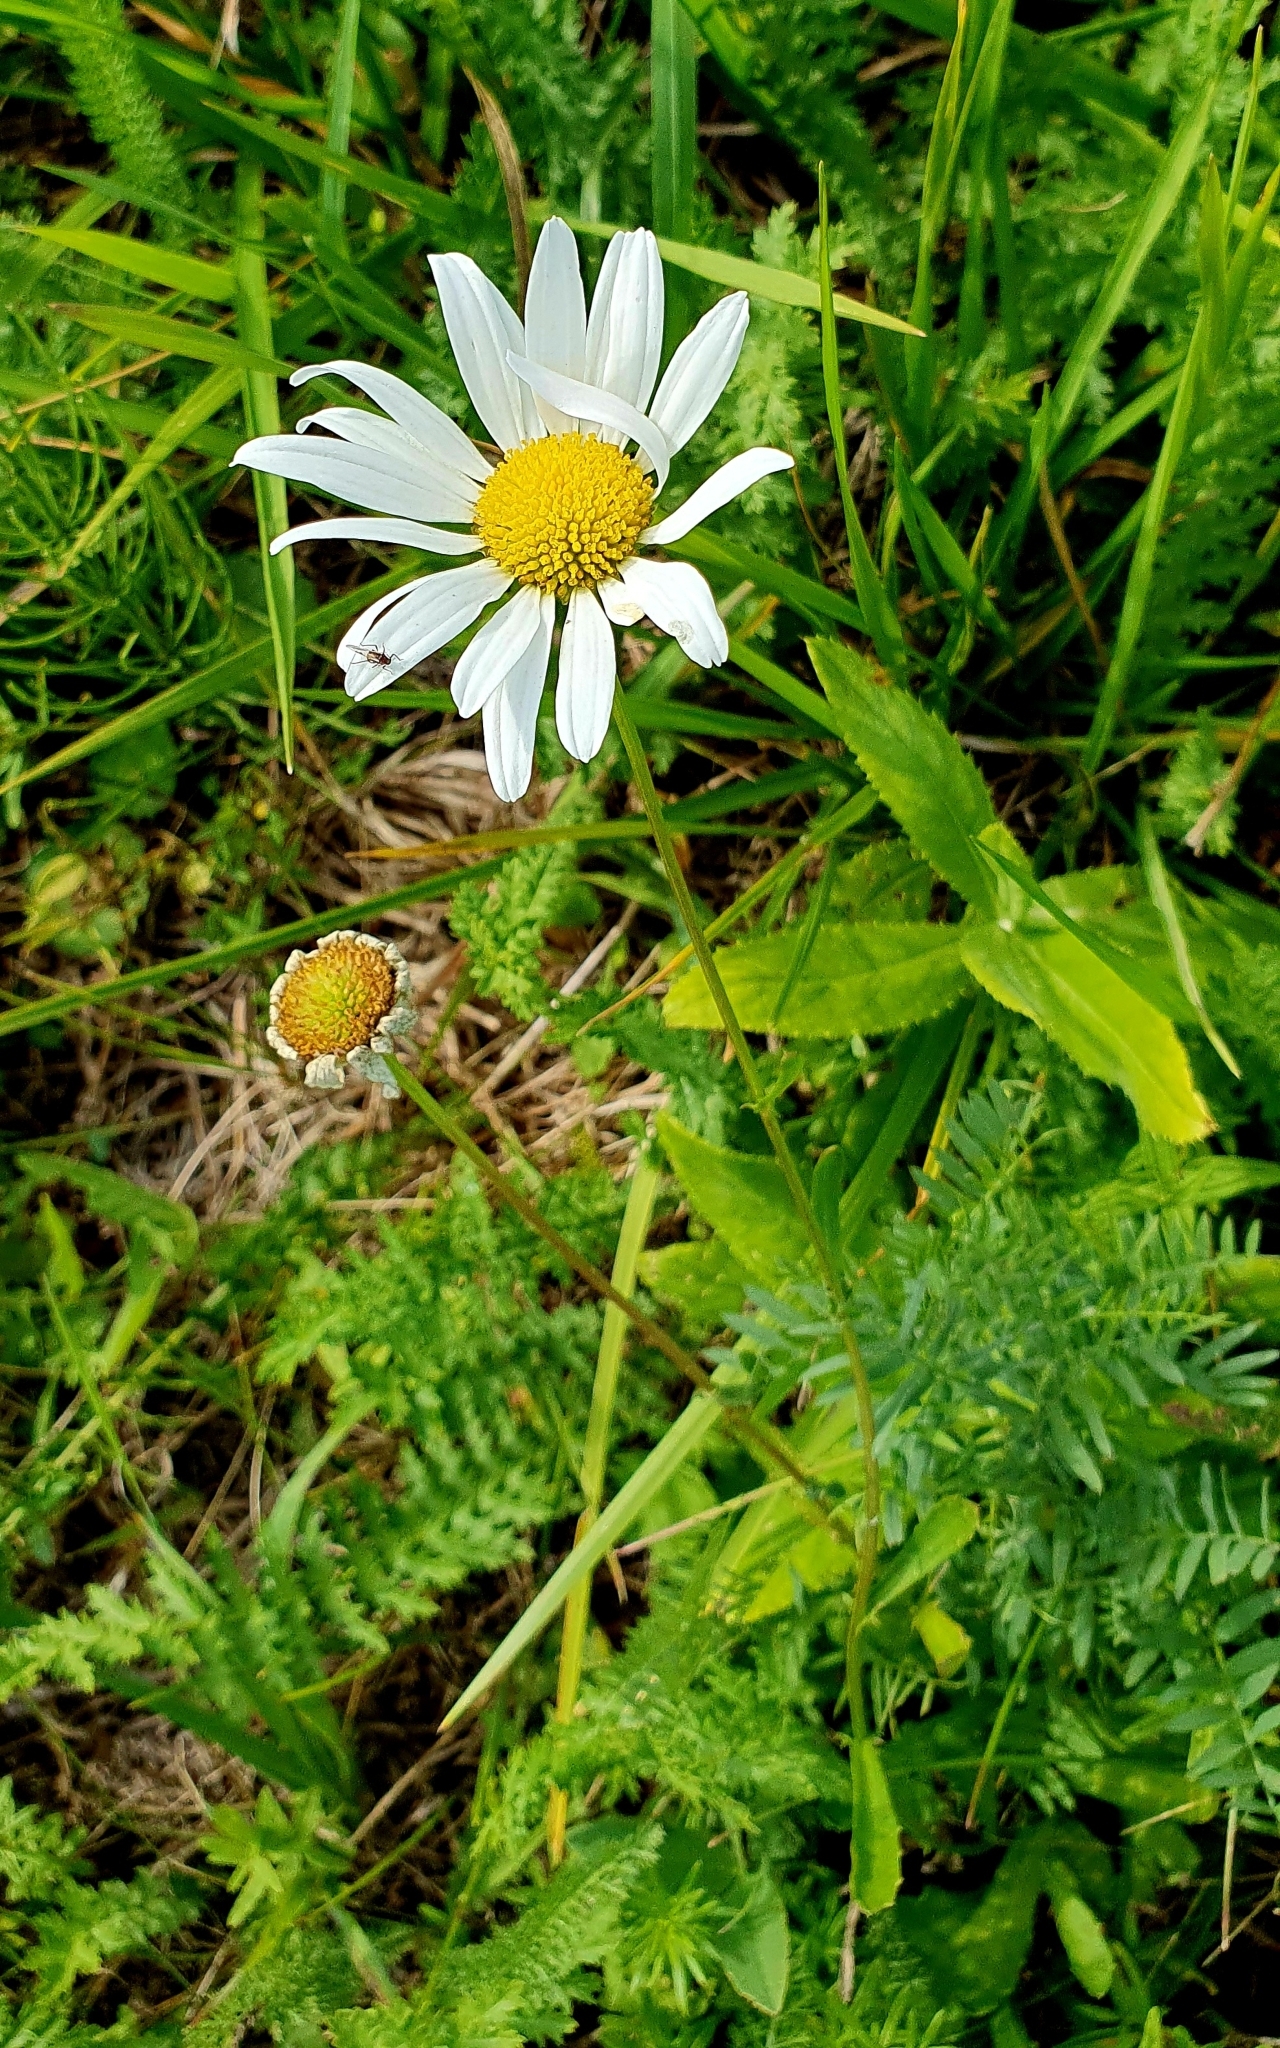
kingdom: Plantae
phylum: Tracheophyta
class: Magnoliopsida
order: Asterales
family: Asteraceae
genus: Leucanthemum
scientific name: Leucanthemum vulgare
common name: Oxeye daisy
